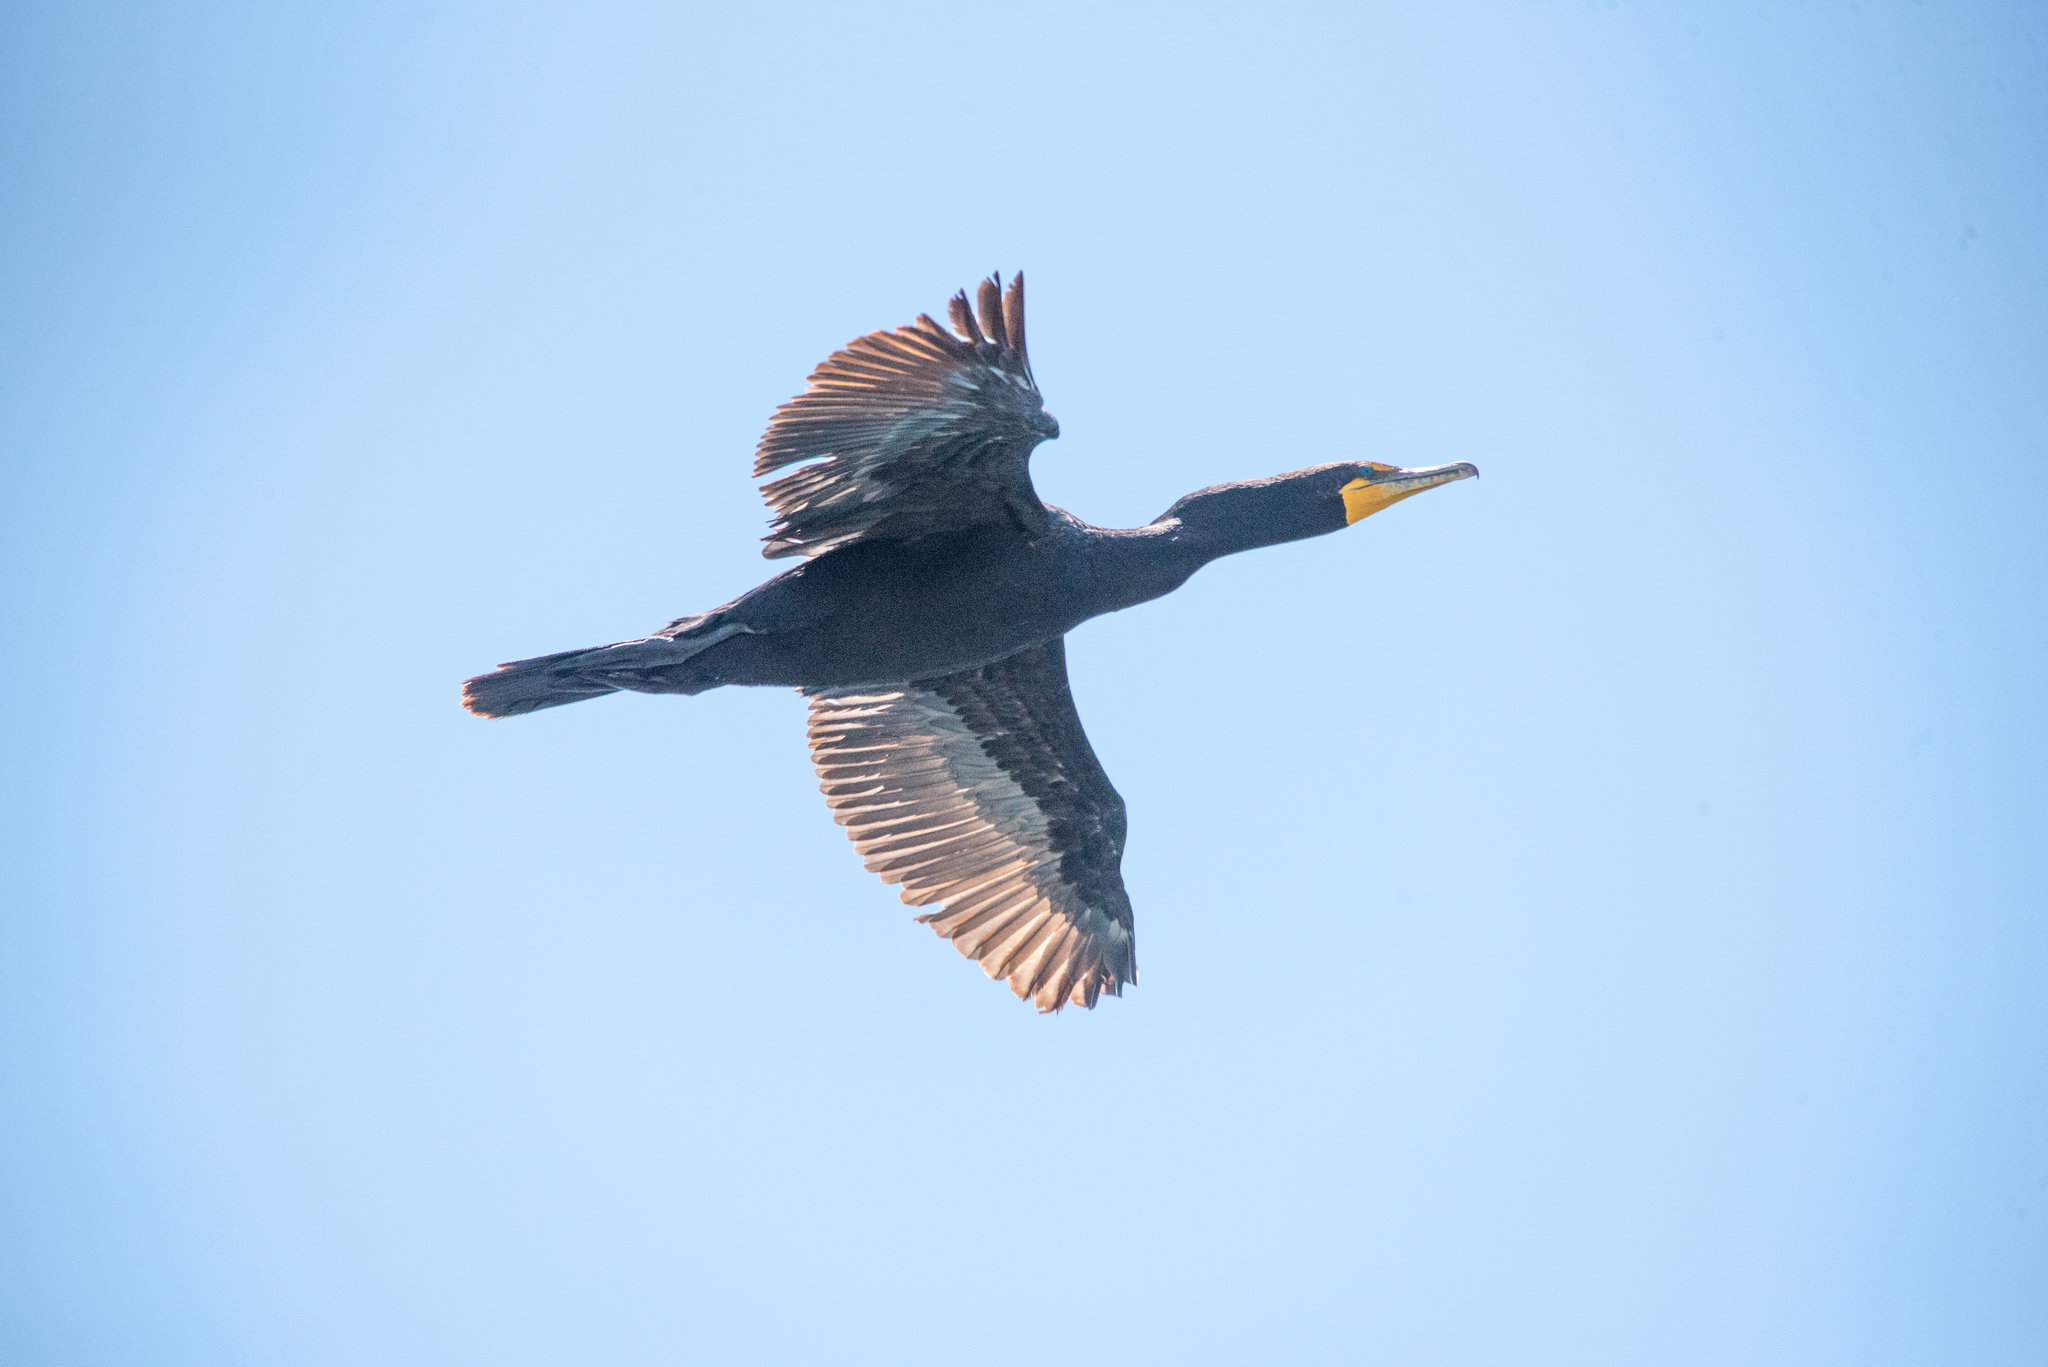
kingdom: Animalia
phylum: Chordata
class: Aves
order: Suliformes
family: Phalacrocoracidae
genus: Phalacrocorax
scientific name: Phalacrocorax auritus
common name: Double-crested cormorant
